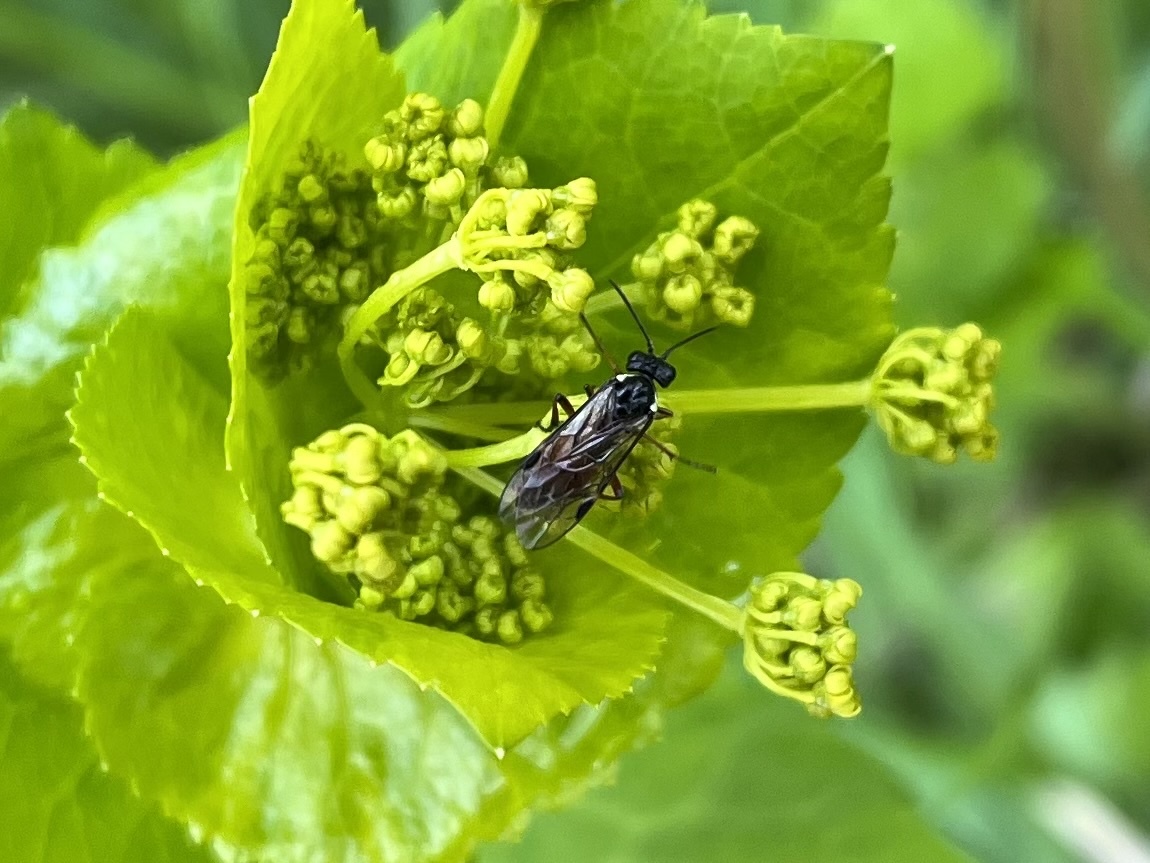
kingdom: Animalia
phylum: Arthropoda
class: Insecta
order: Hymenoptera
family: Tenthredinidae
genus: Aglaostigma
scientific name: Aglaostigma aucupariae
